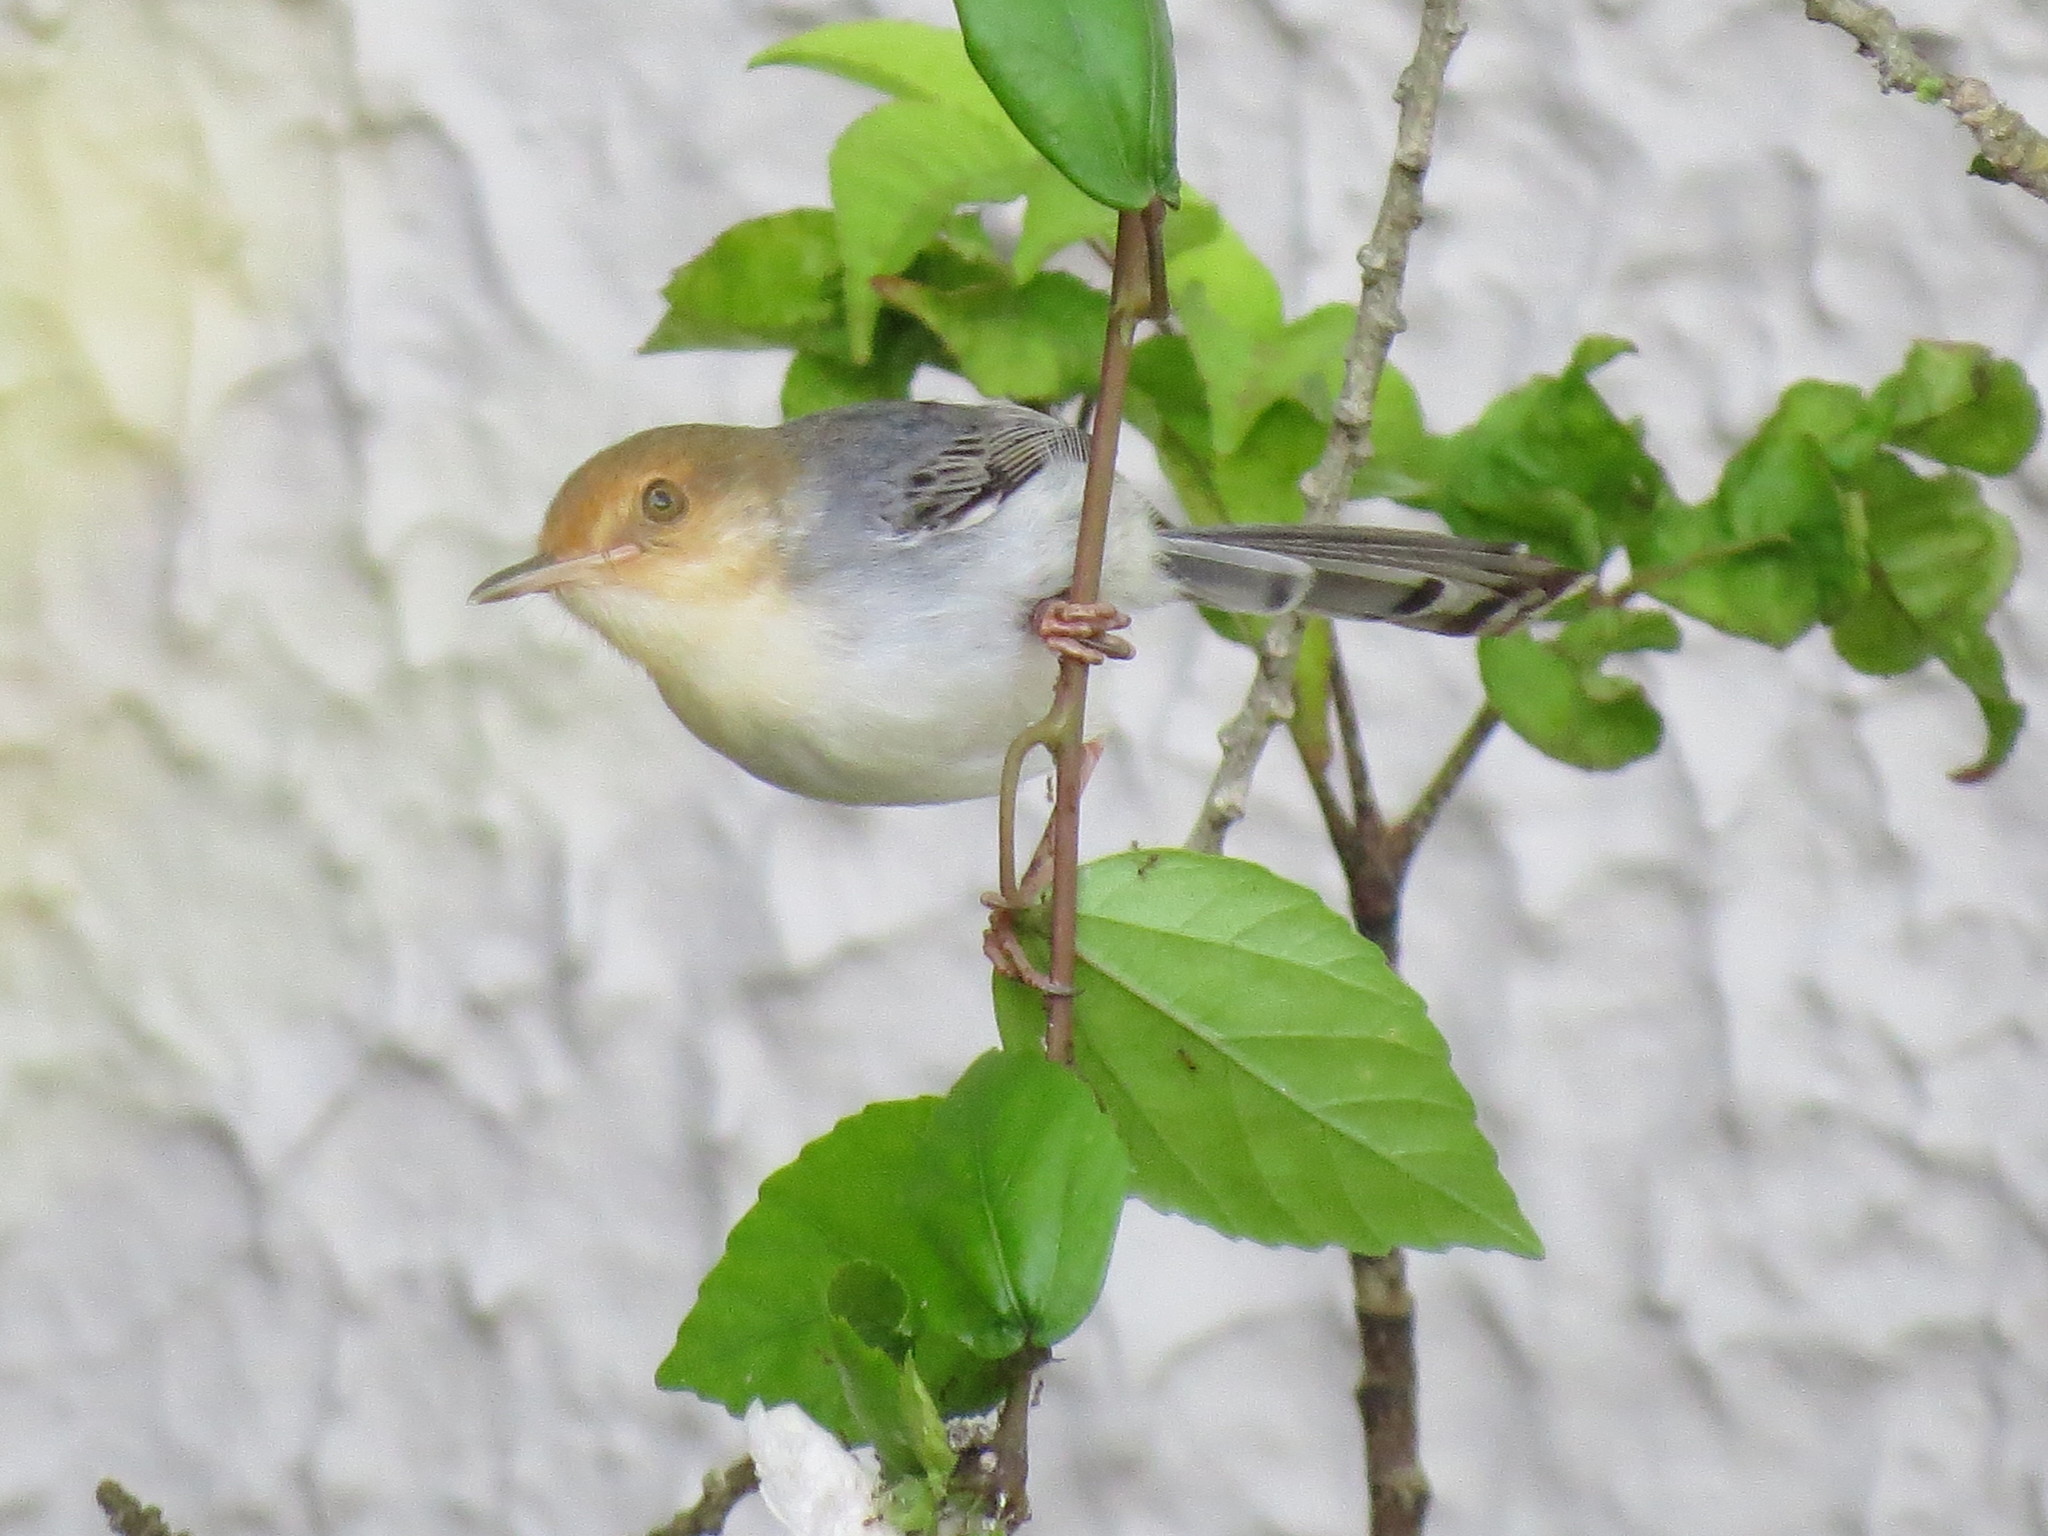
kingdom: Animalia
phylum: Chordata
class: Aves
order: Passeriformes
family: Cisticolidae
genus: Prinia
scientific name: Prinia molleri
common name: Sao tome prinia
